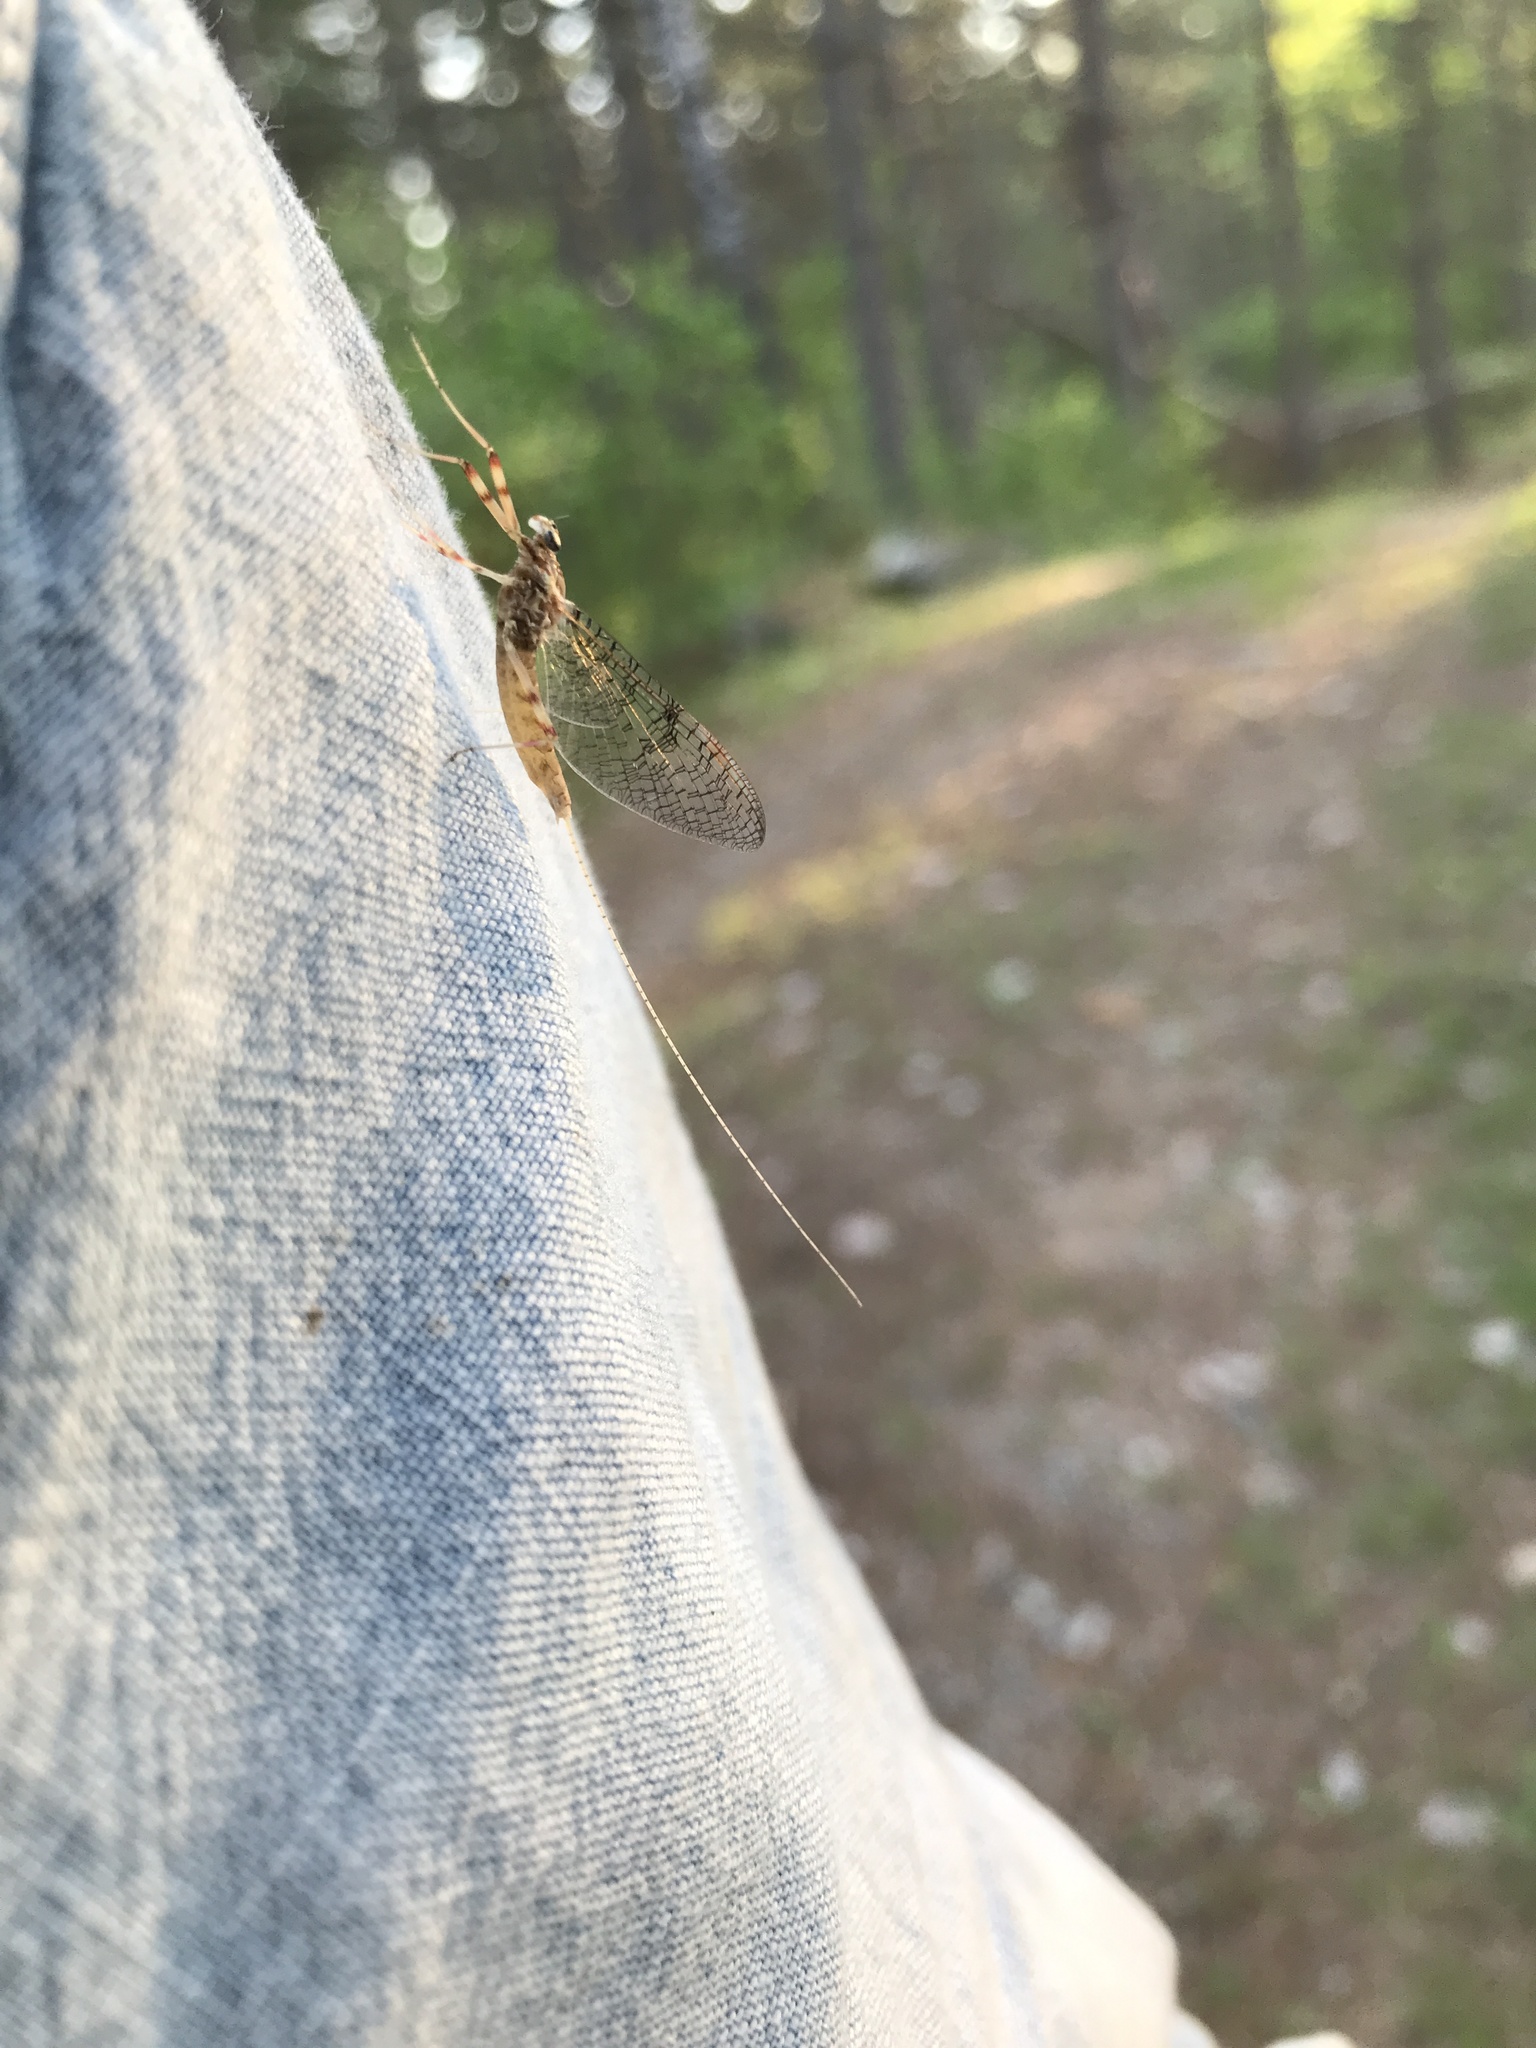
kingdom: Animalia
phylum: Arthropoda
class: Insecta
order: Ephemeroptera
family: Heptageniidae
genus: Stenonema
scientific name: Stenonema femoratum
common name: Dark cahill
